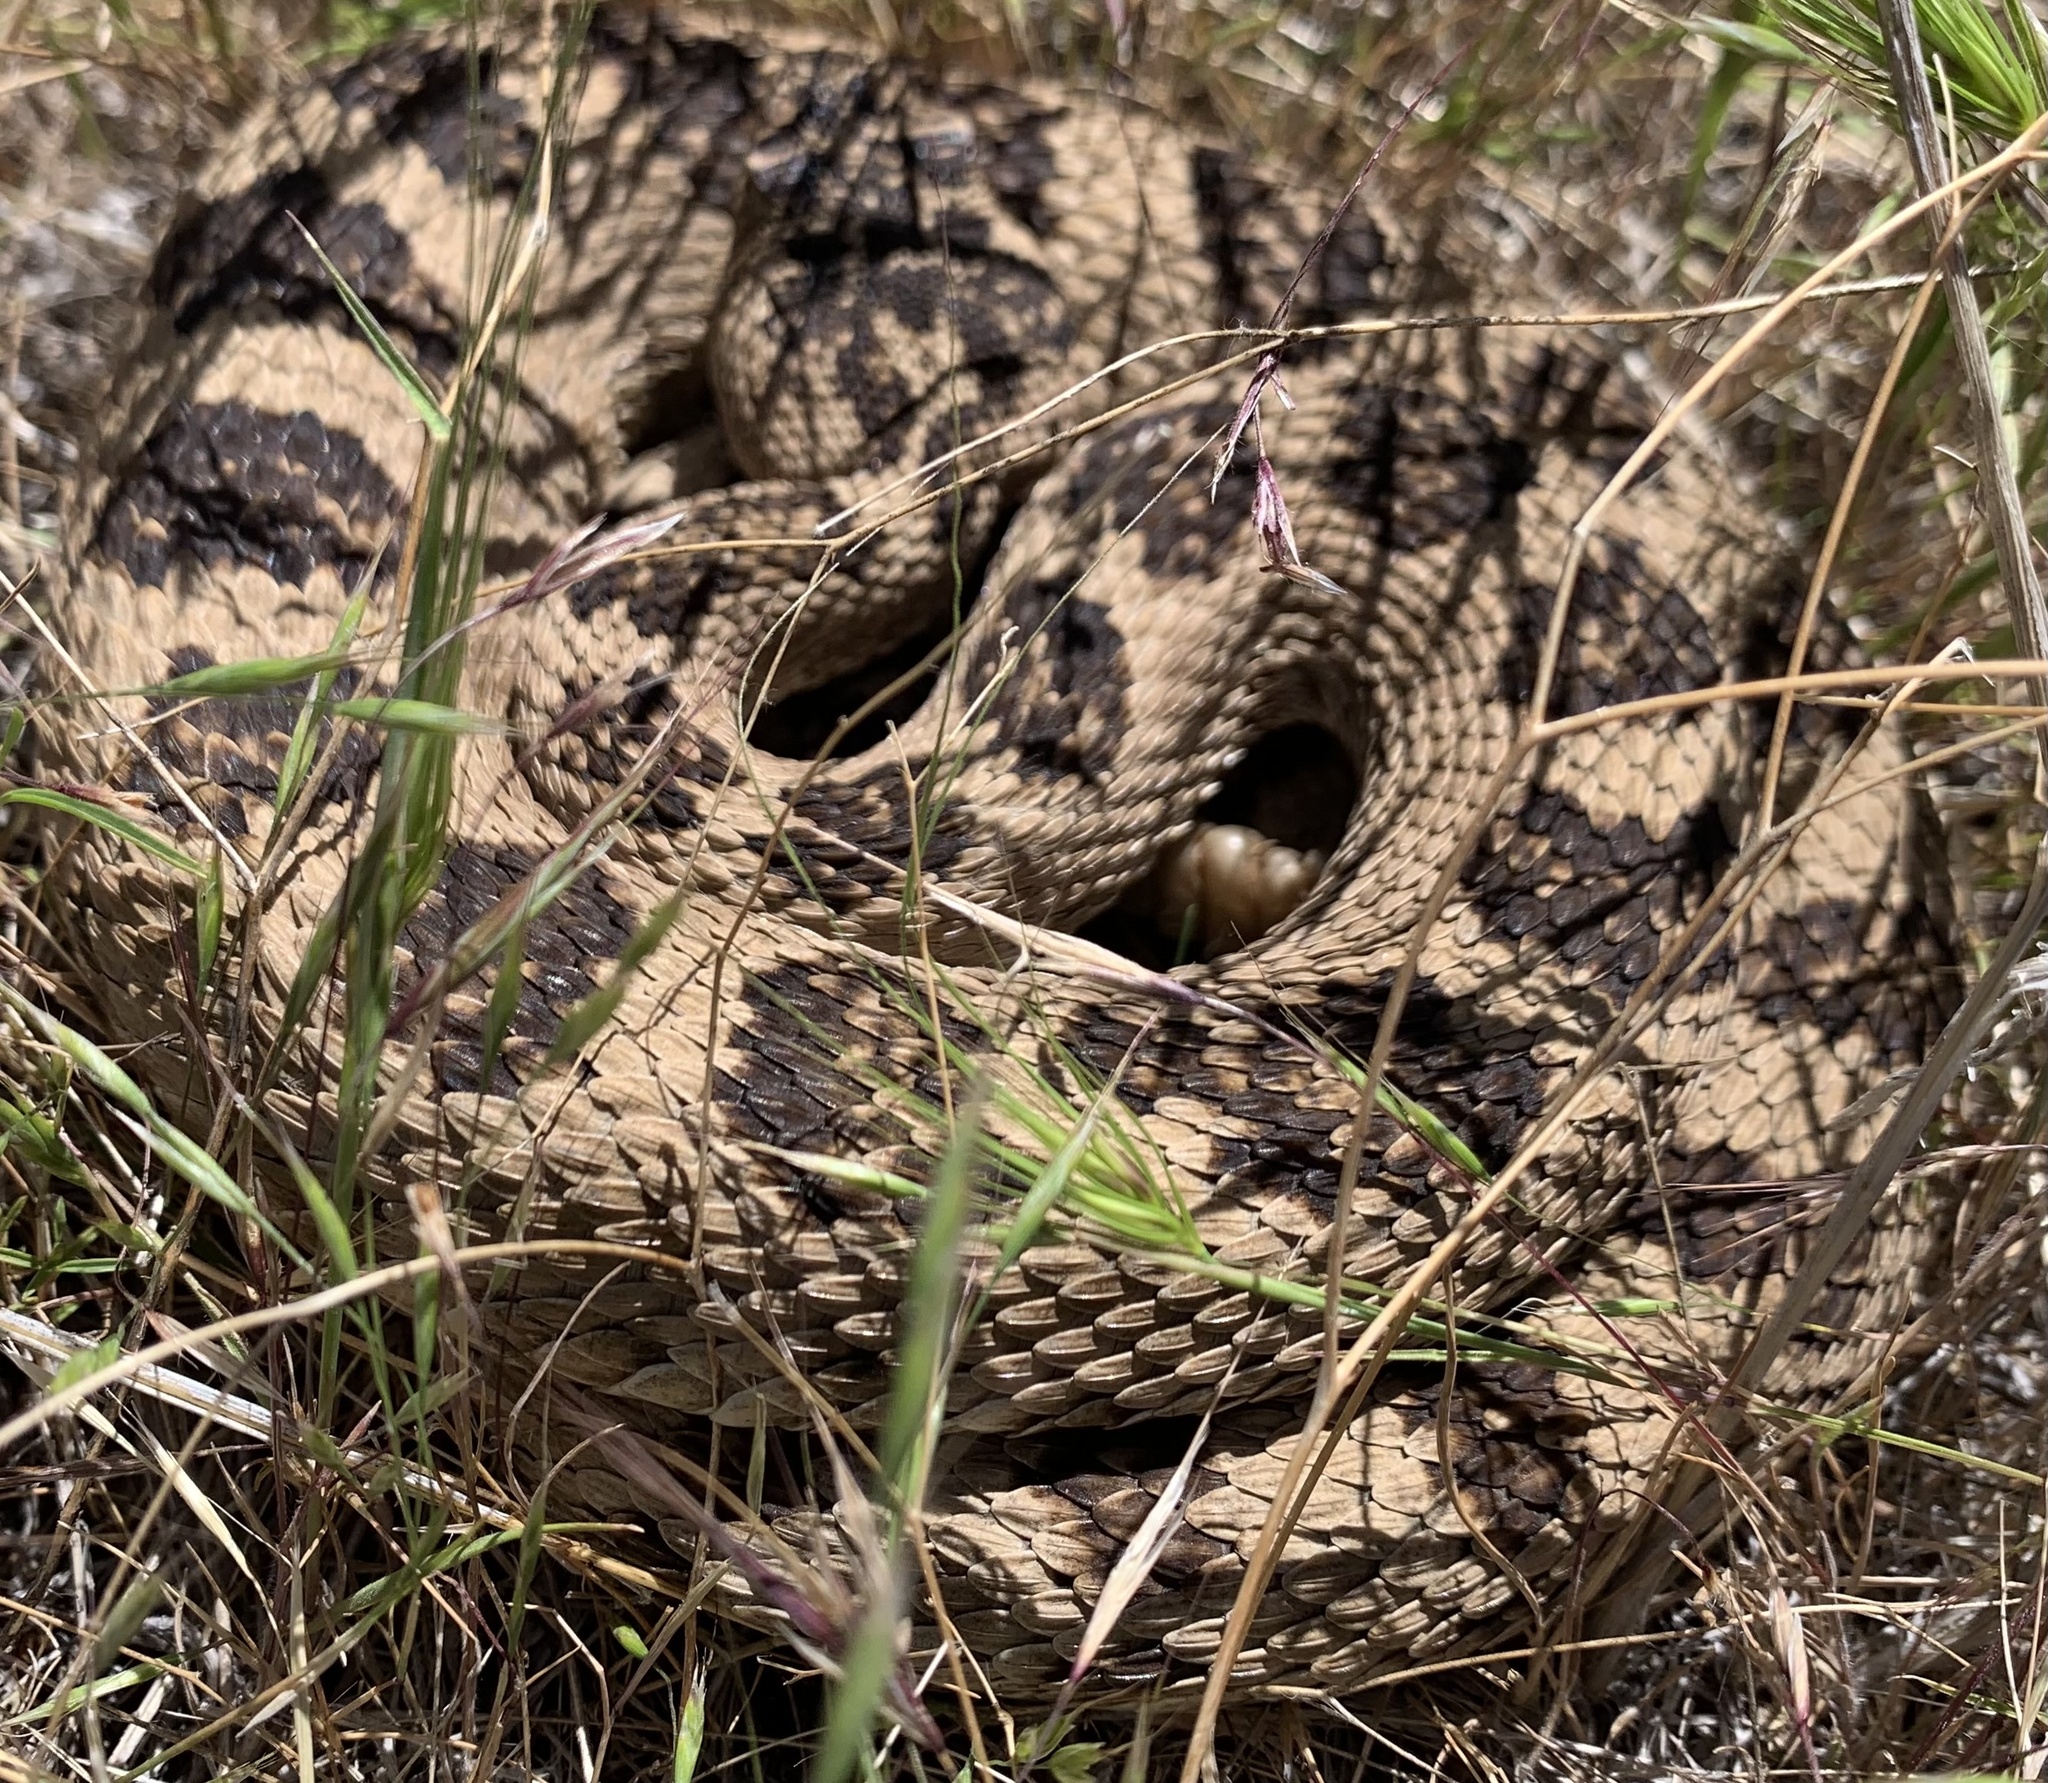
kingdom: Animalia
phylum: Chordata
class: Squamata
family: Viperidae
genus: Crotalus
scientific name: Crotalus oreganus
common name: Abyssus
